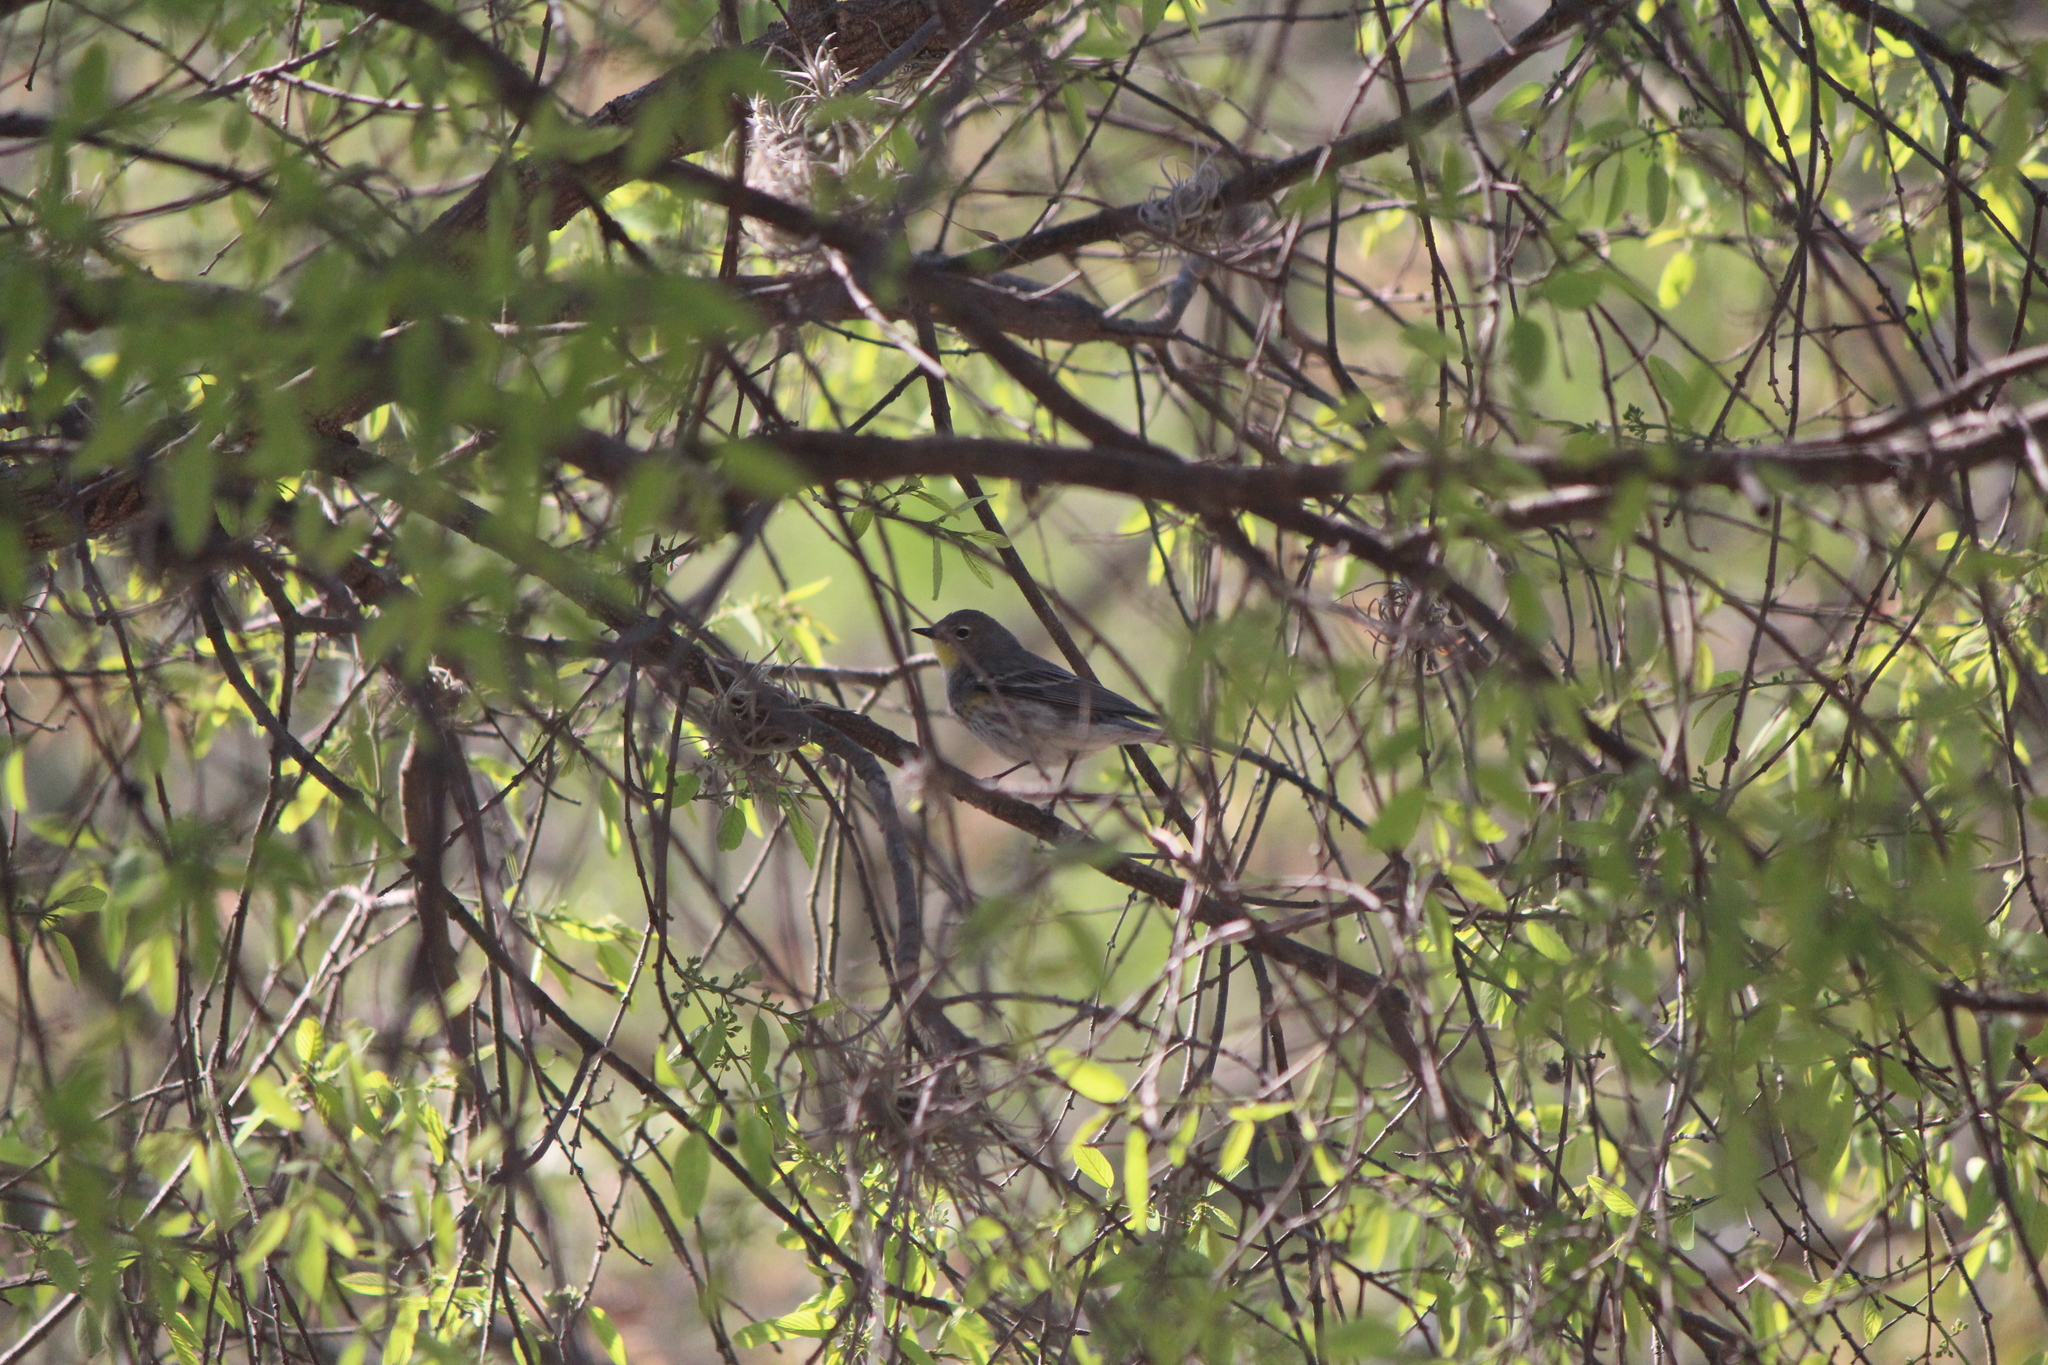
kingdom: Animalia
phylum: Chordata
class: Aves
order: Passeriformes
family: Parulidae
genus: Setophaga
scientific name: Setophaga auduboni
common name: Audubon's warbler
